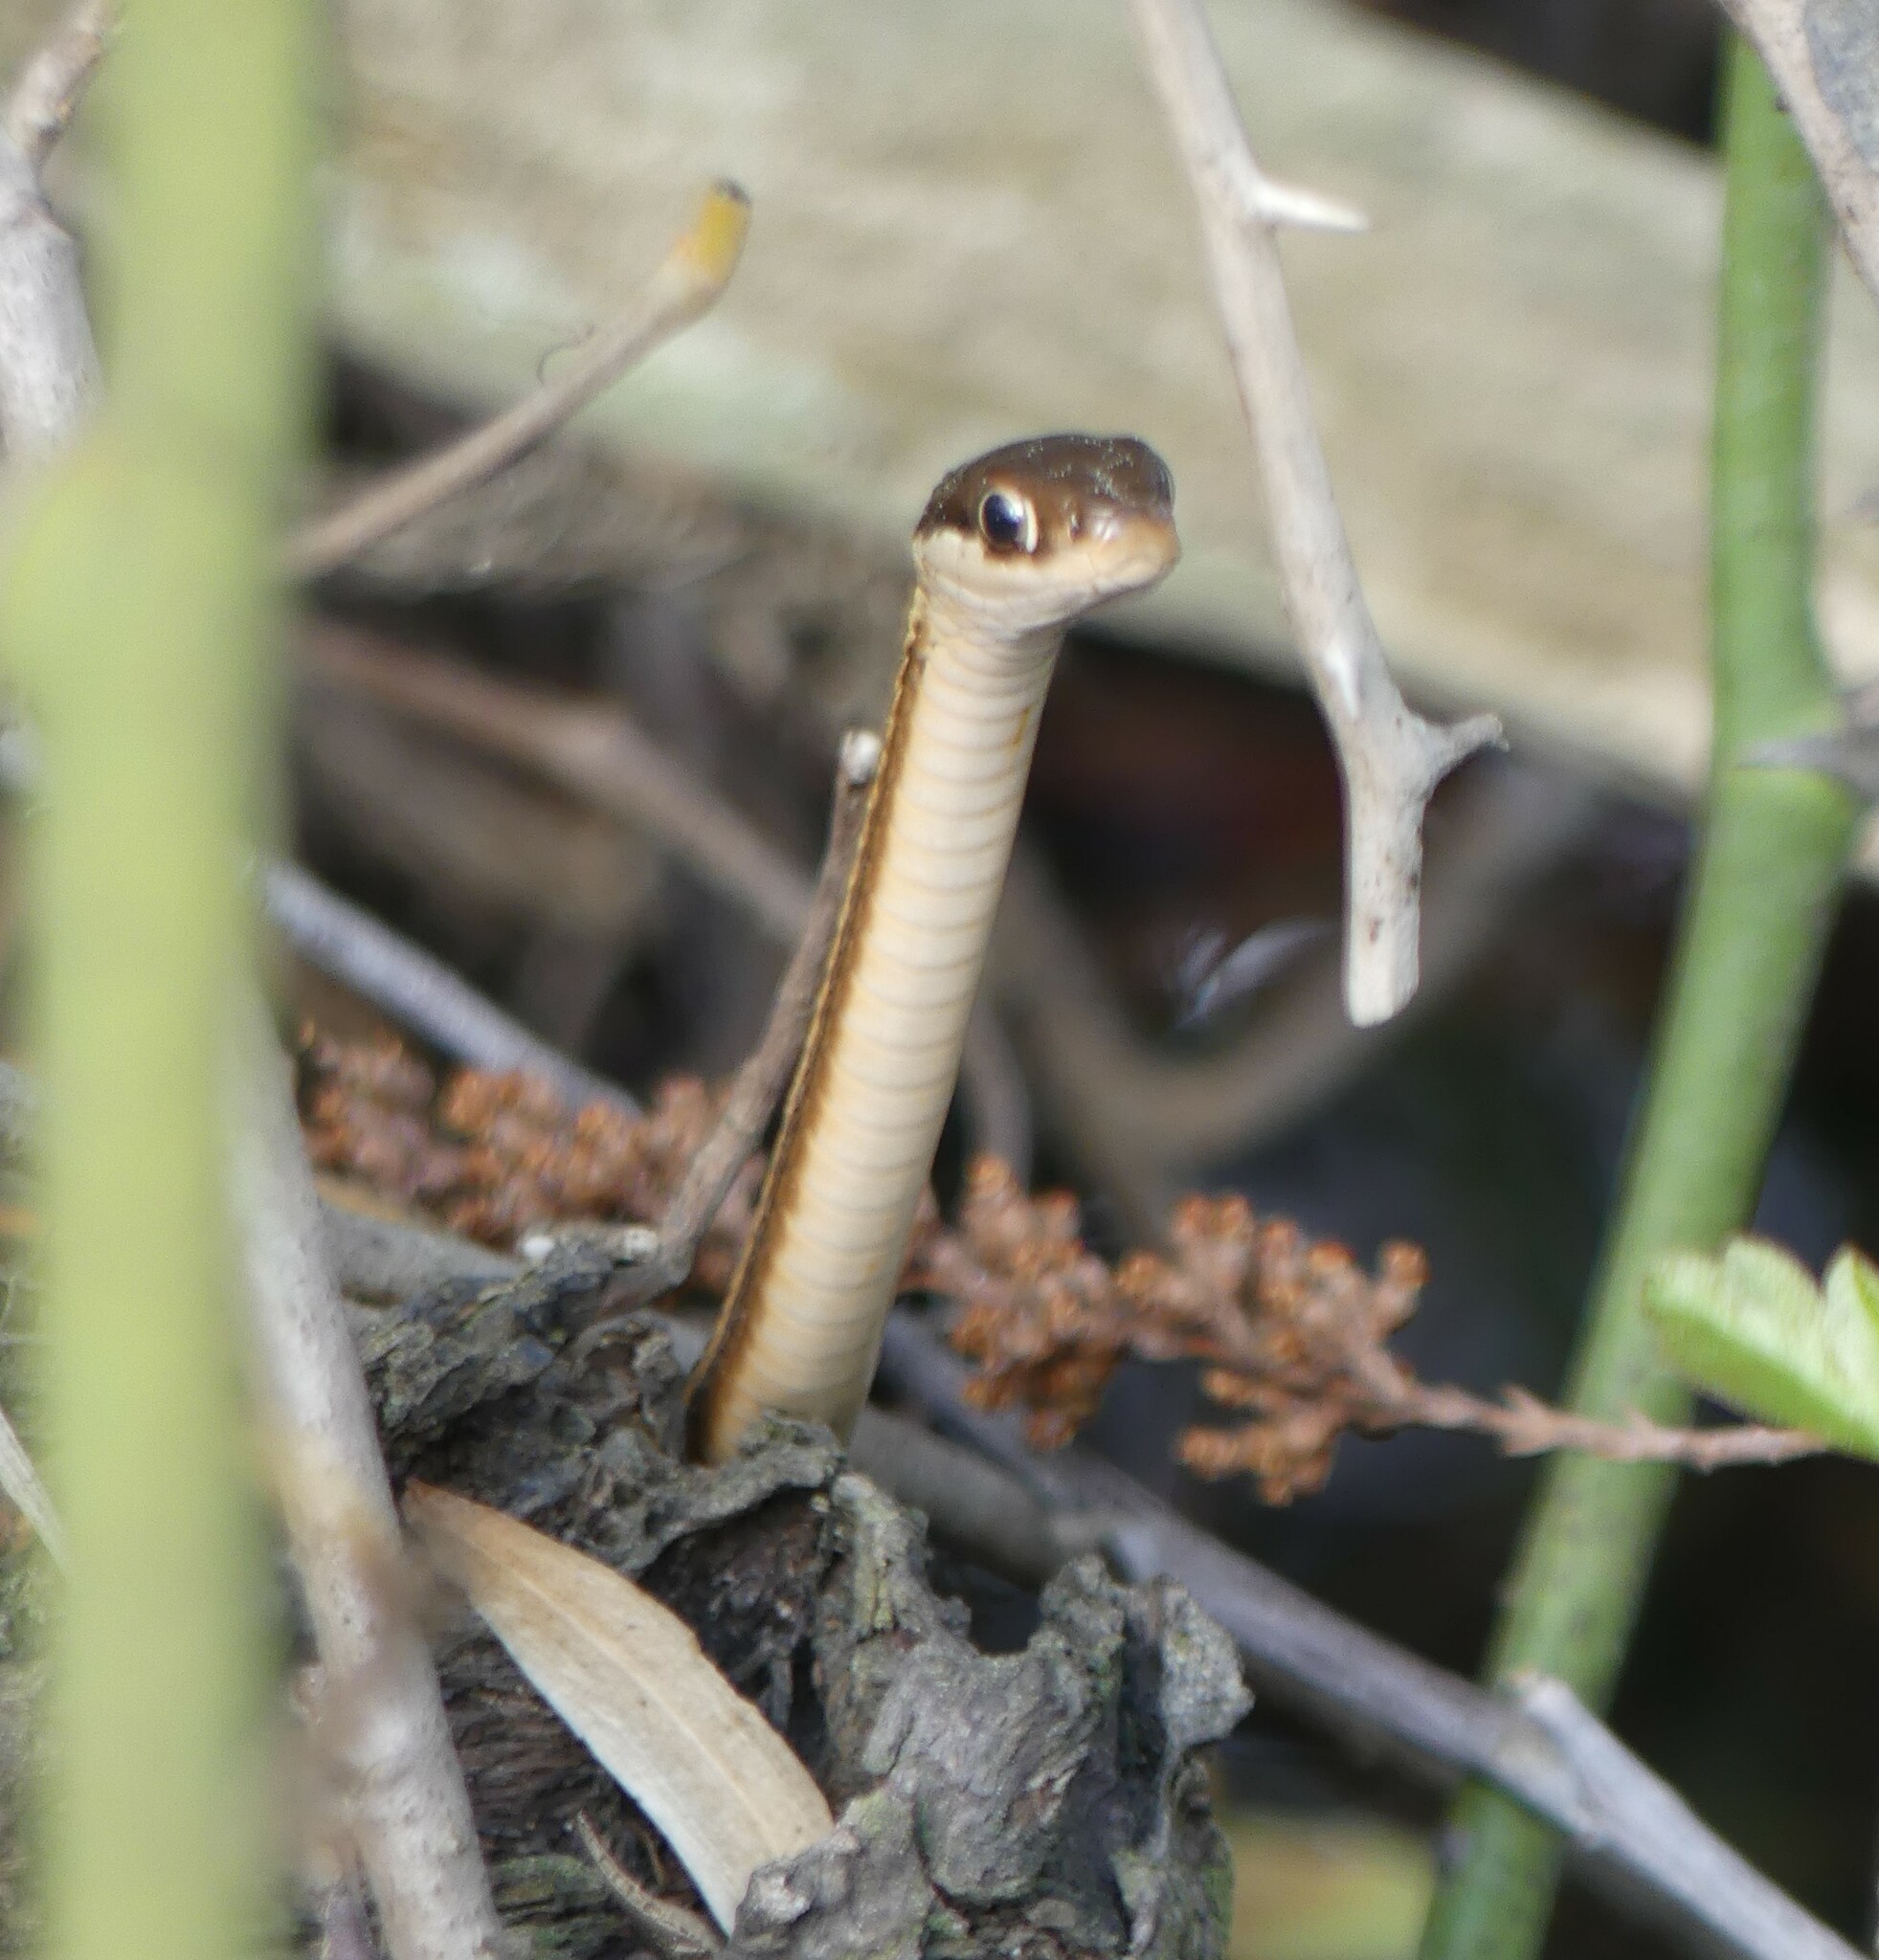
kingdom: Animalia
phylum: Chordata
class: Squamata
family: Colubridae
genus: Thamnophis
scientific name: Thamnophis saurita
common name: Eastern ribbonsnake
